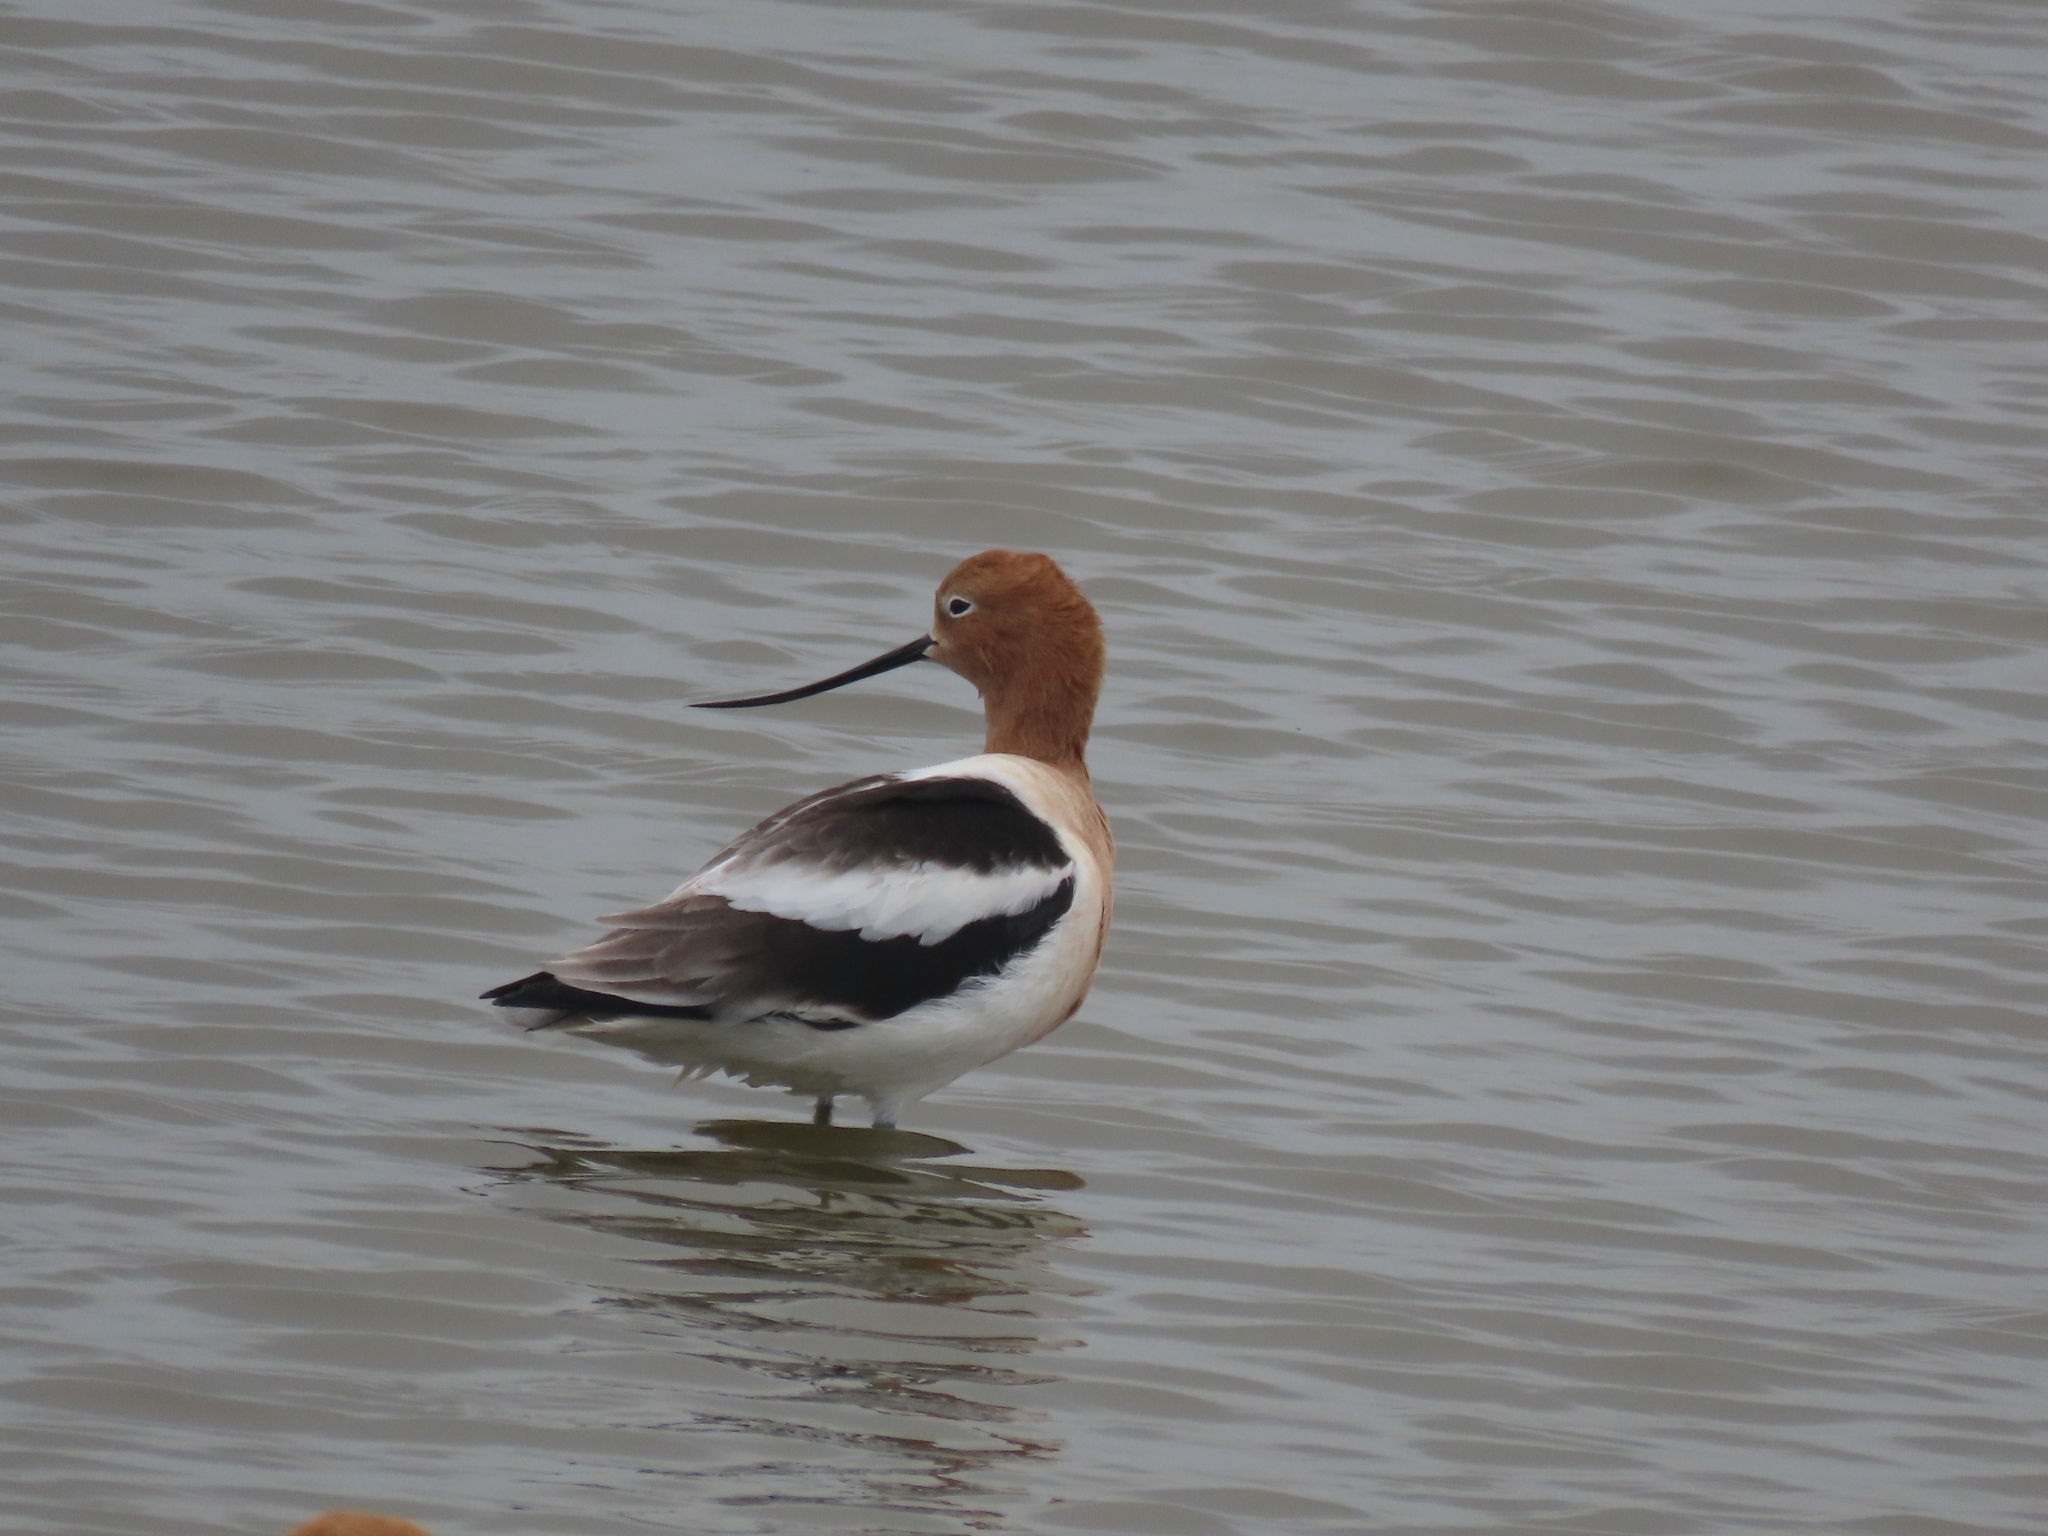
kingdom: Animalia
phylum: Chordata
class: Aves
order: Charadriiformes
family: Recurvirostridae
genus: Recurvirostra
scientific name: Recurvirostra americana
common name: American avocet
